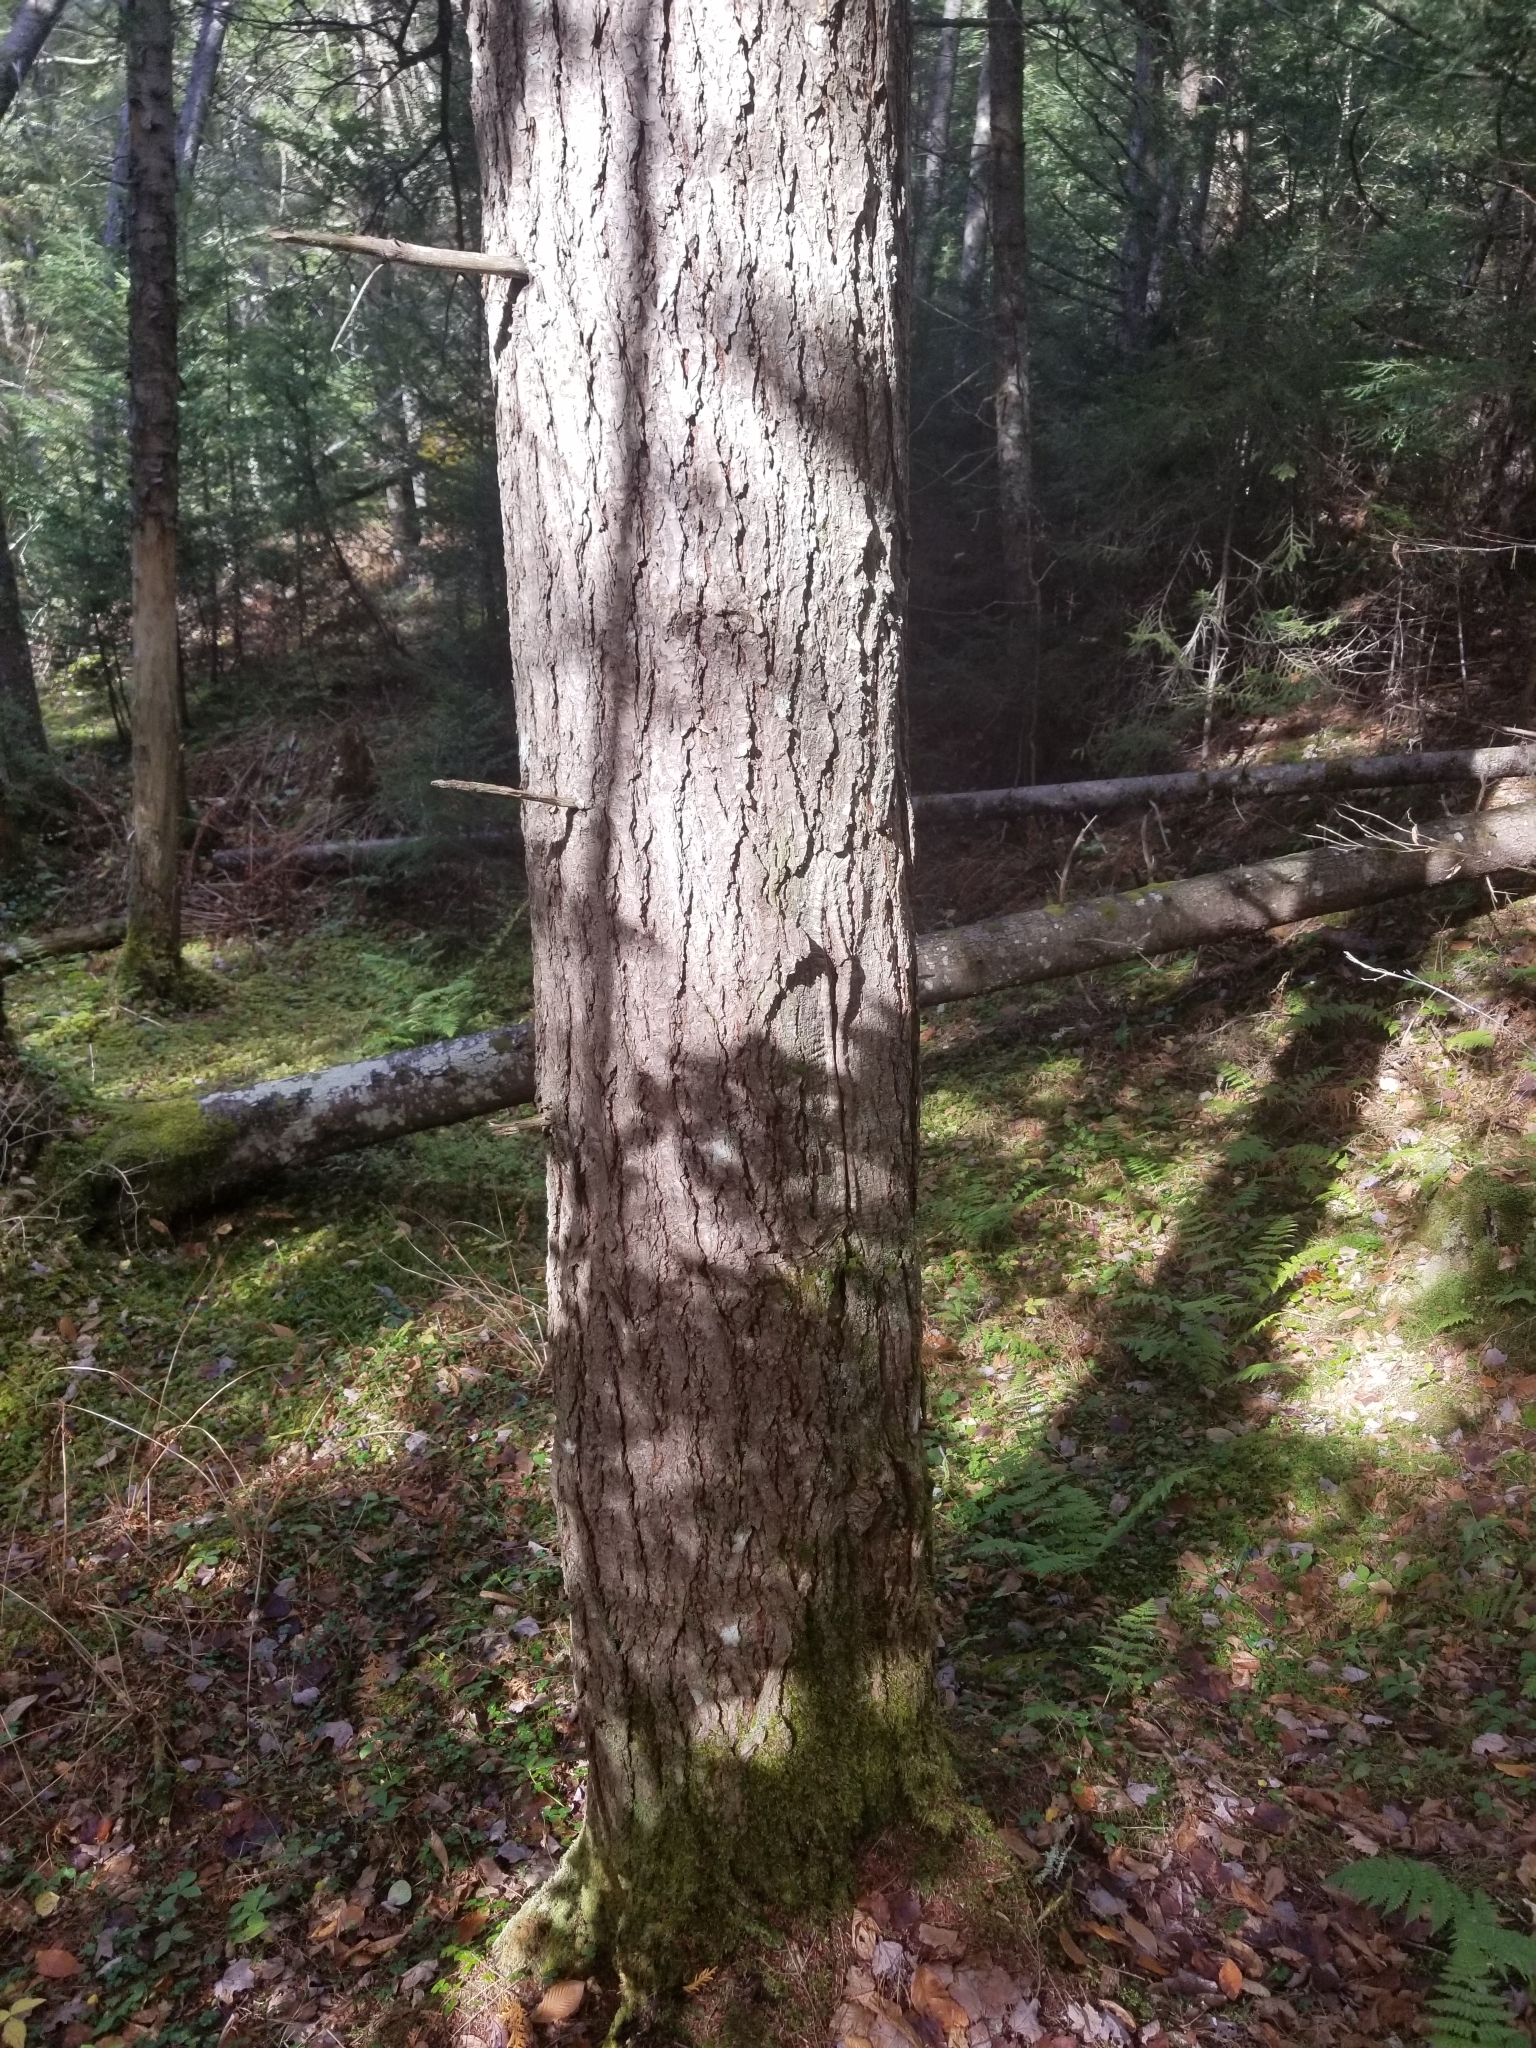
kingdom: Plantae
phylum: Tracheophyta
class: Pinopsida
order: Pinales
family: Pinaceae
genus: Tsuga
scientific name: Tsuga canadensis
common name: Eastern hemlock
